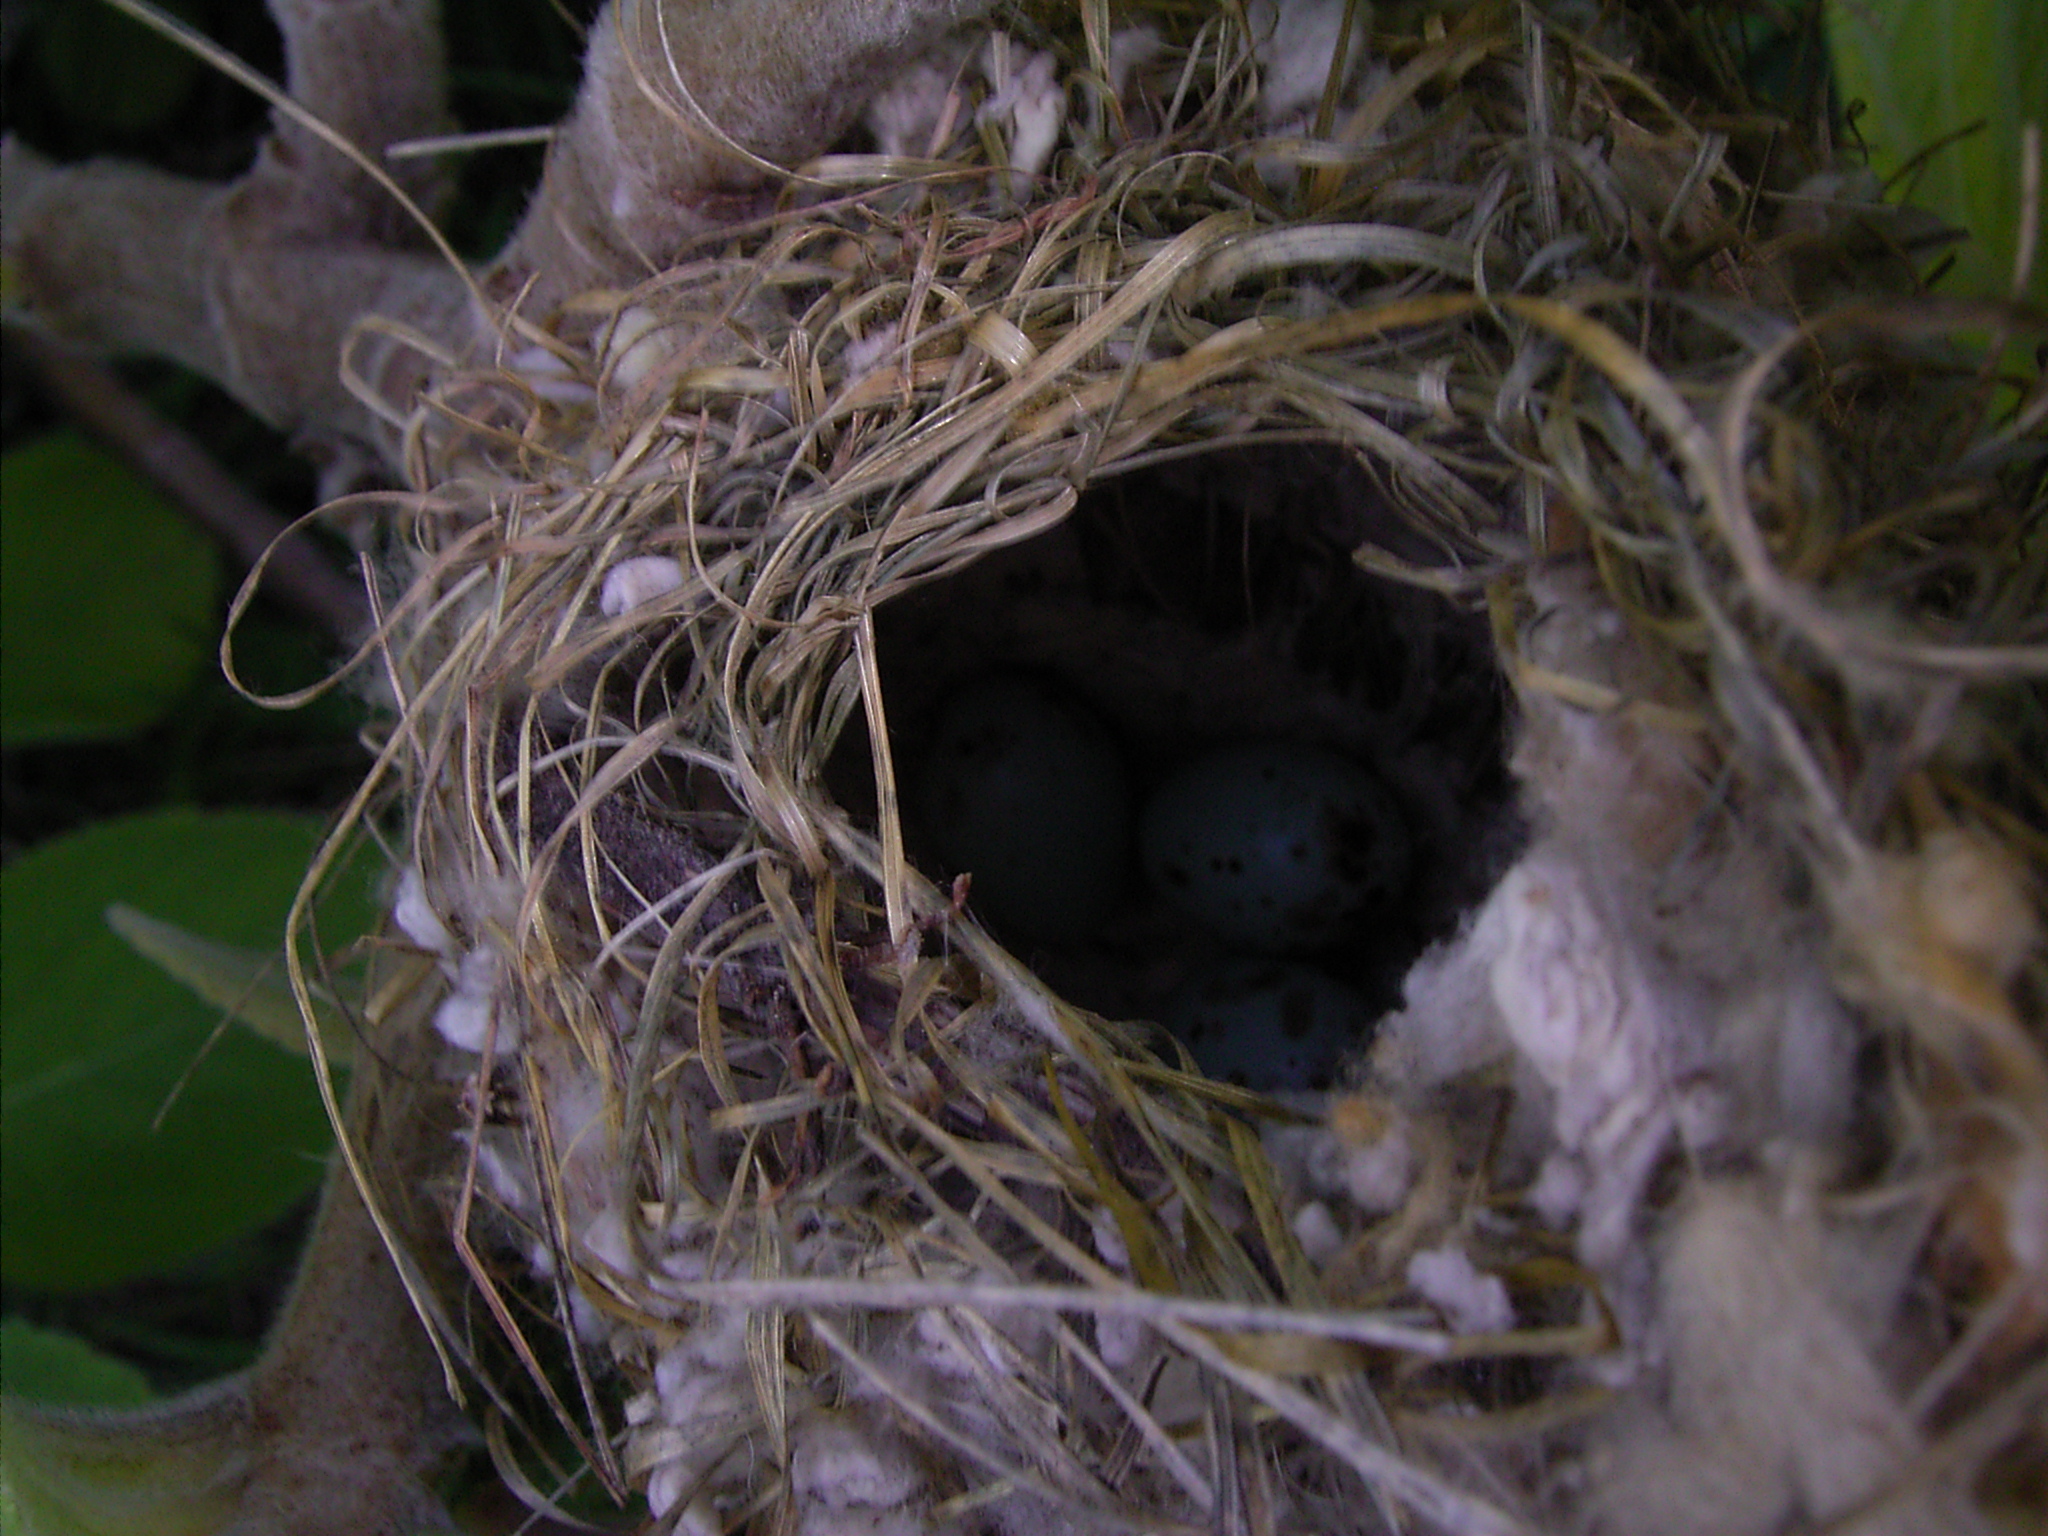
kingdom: Animalia
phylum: Chordata
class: Aves
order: Passeriformes
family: Cisticolidae
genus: Prinia
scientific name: Prinia maculosa
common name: Karoo prinia
